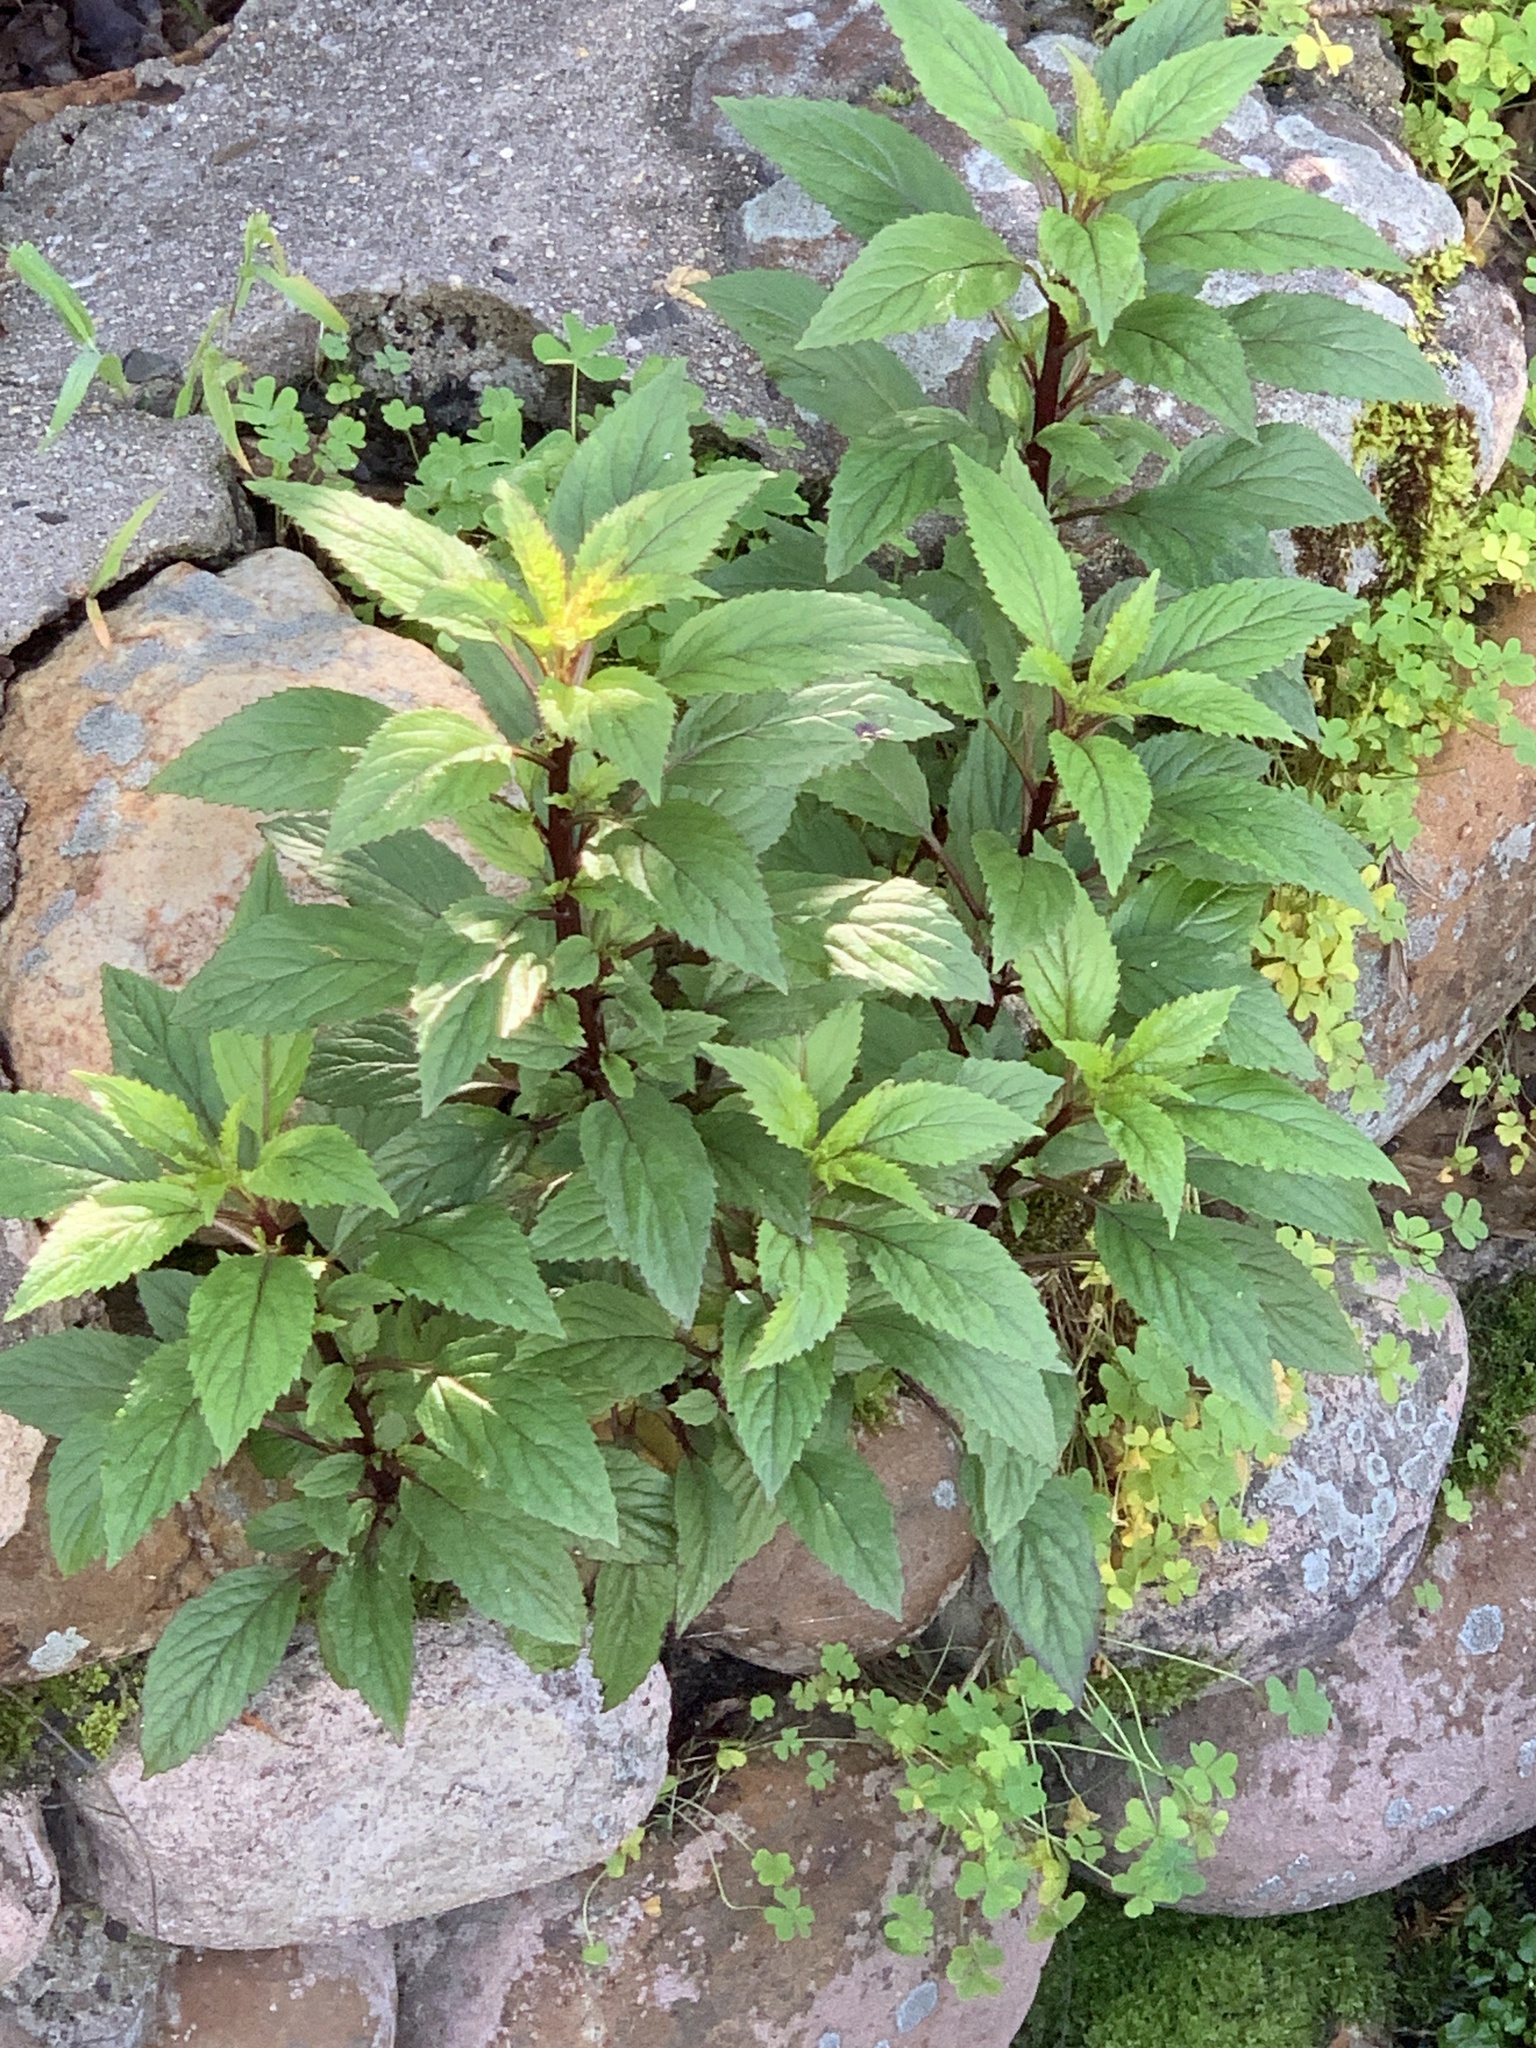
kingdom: Plantae
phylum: Tracheophyta
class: Magnoliopsida
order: Asterales
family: Campanulaceae
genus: Trachelium
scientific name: Trachelium caeruleum
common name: Throatwort
